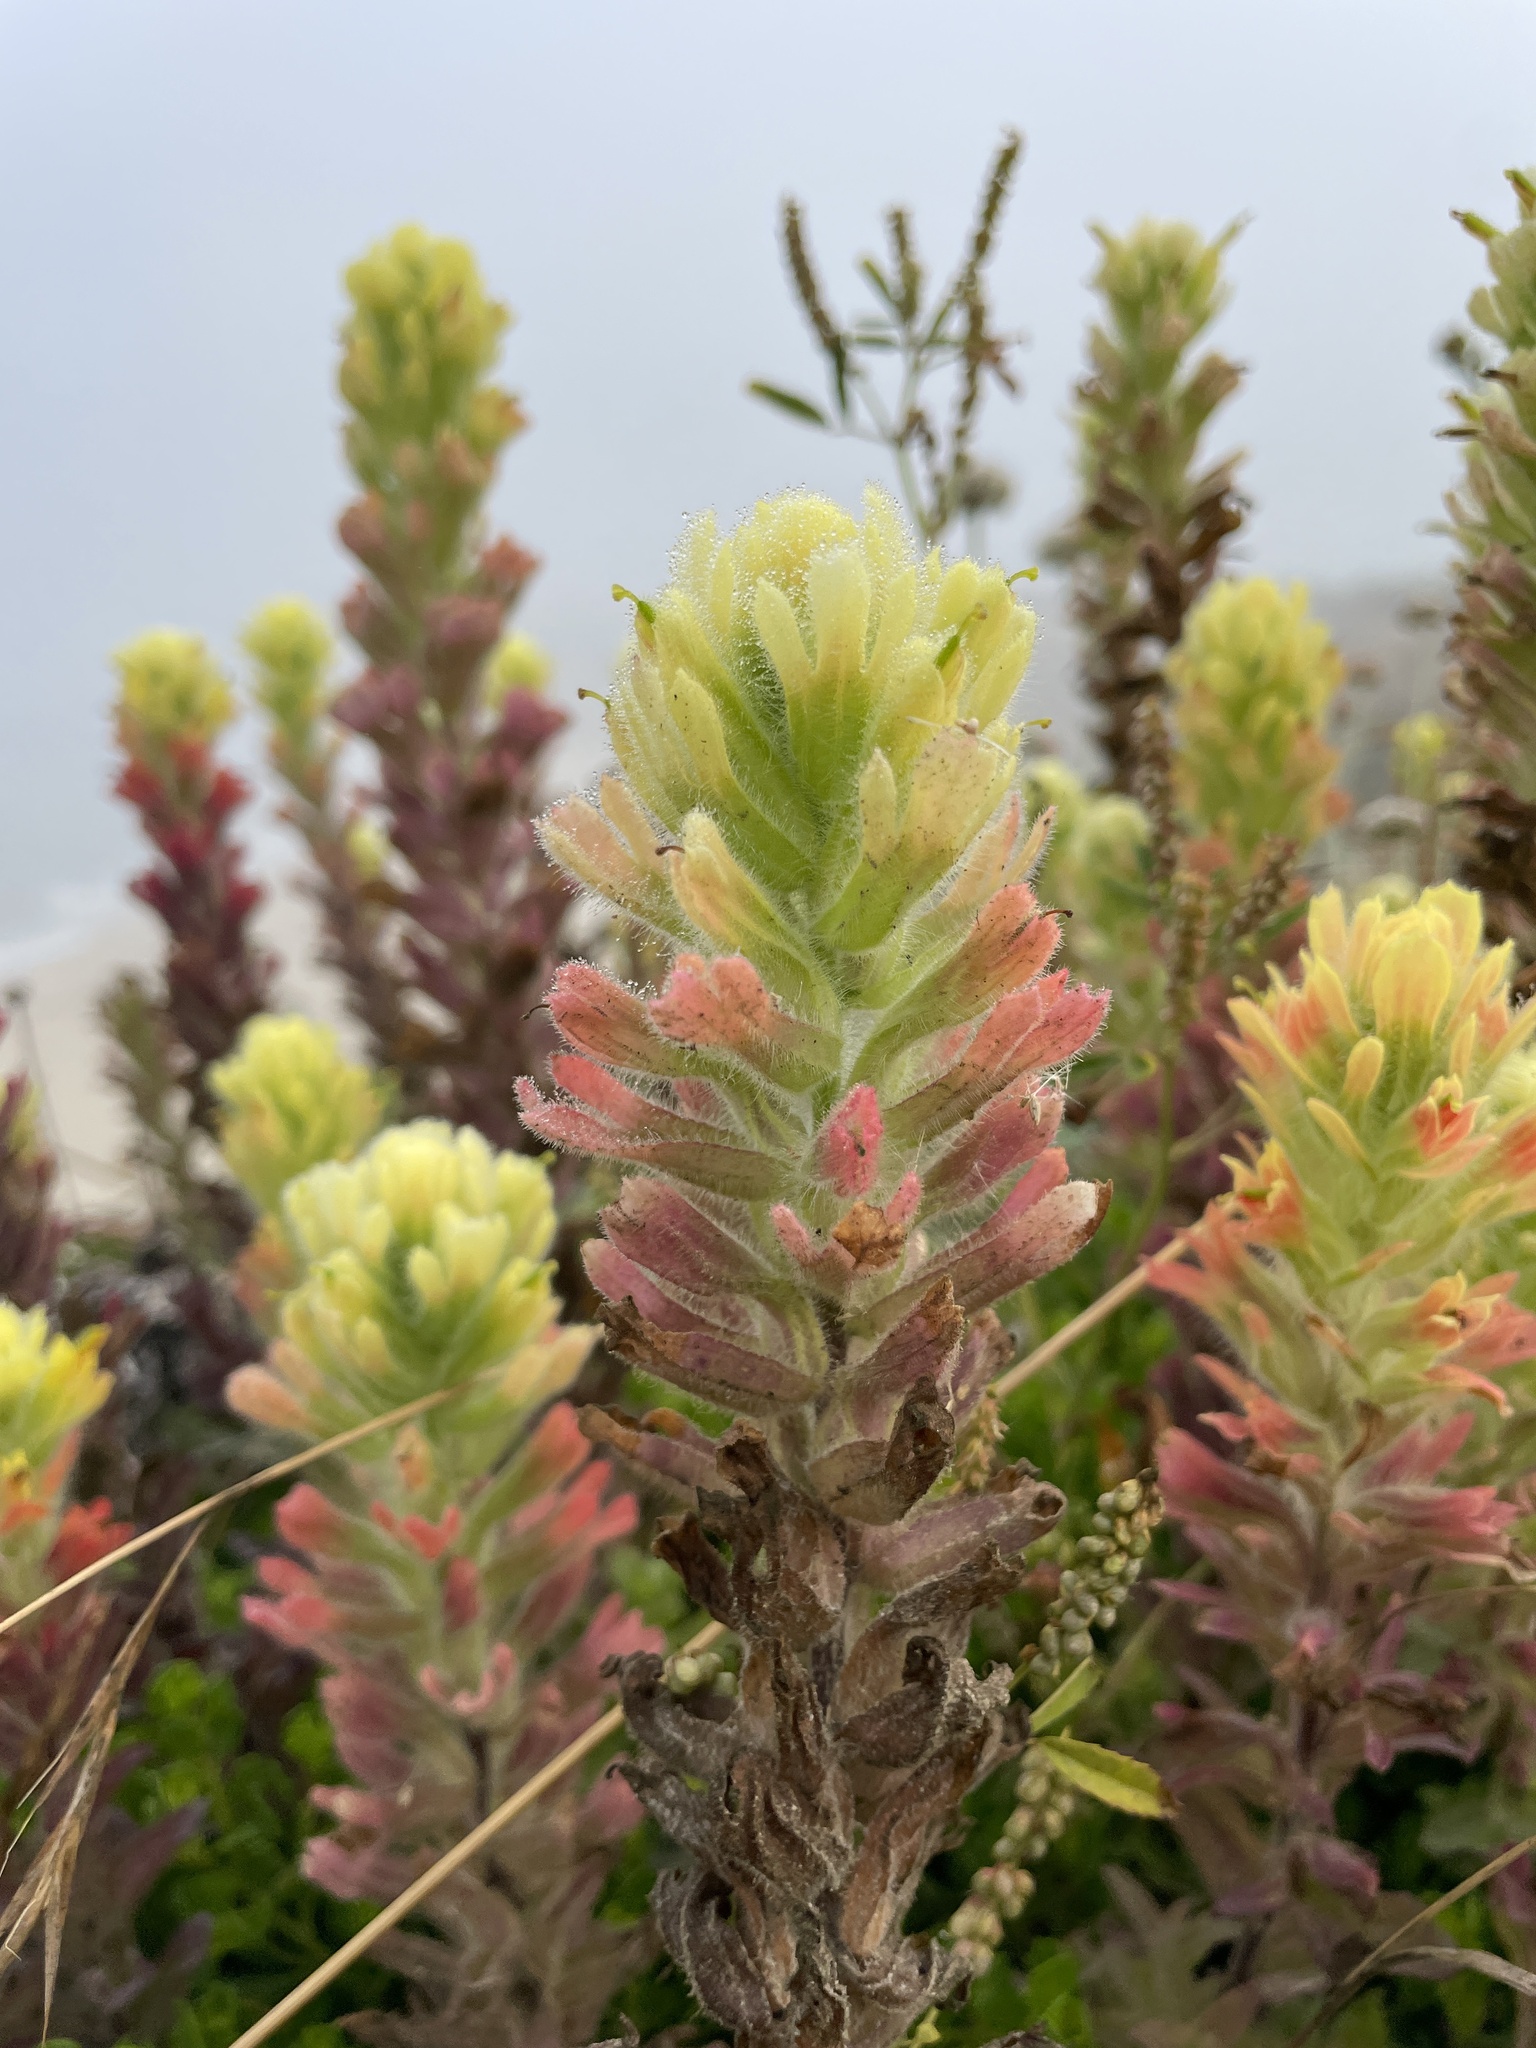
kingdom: Plantae
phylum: Tracheophyta
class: Magnoliopsida
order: Lamiales
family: Orobanchaceae
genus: Castilleja
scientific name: Castilleja wightii
